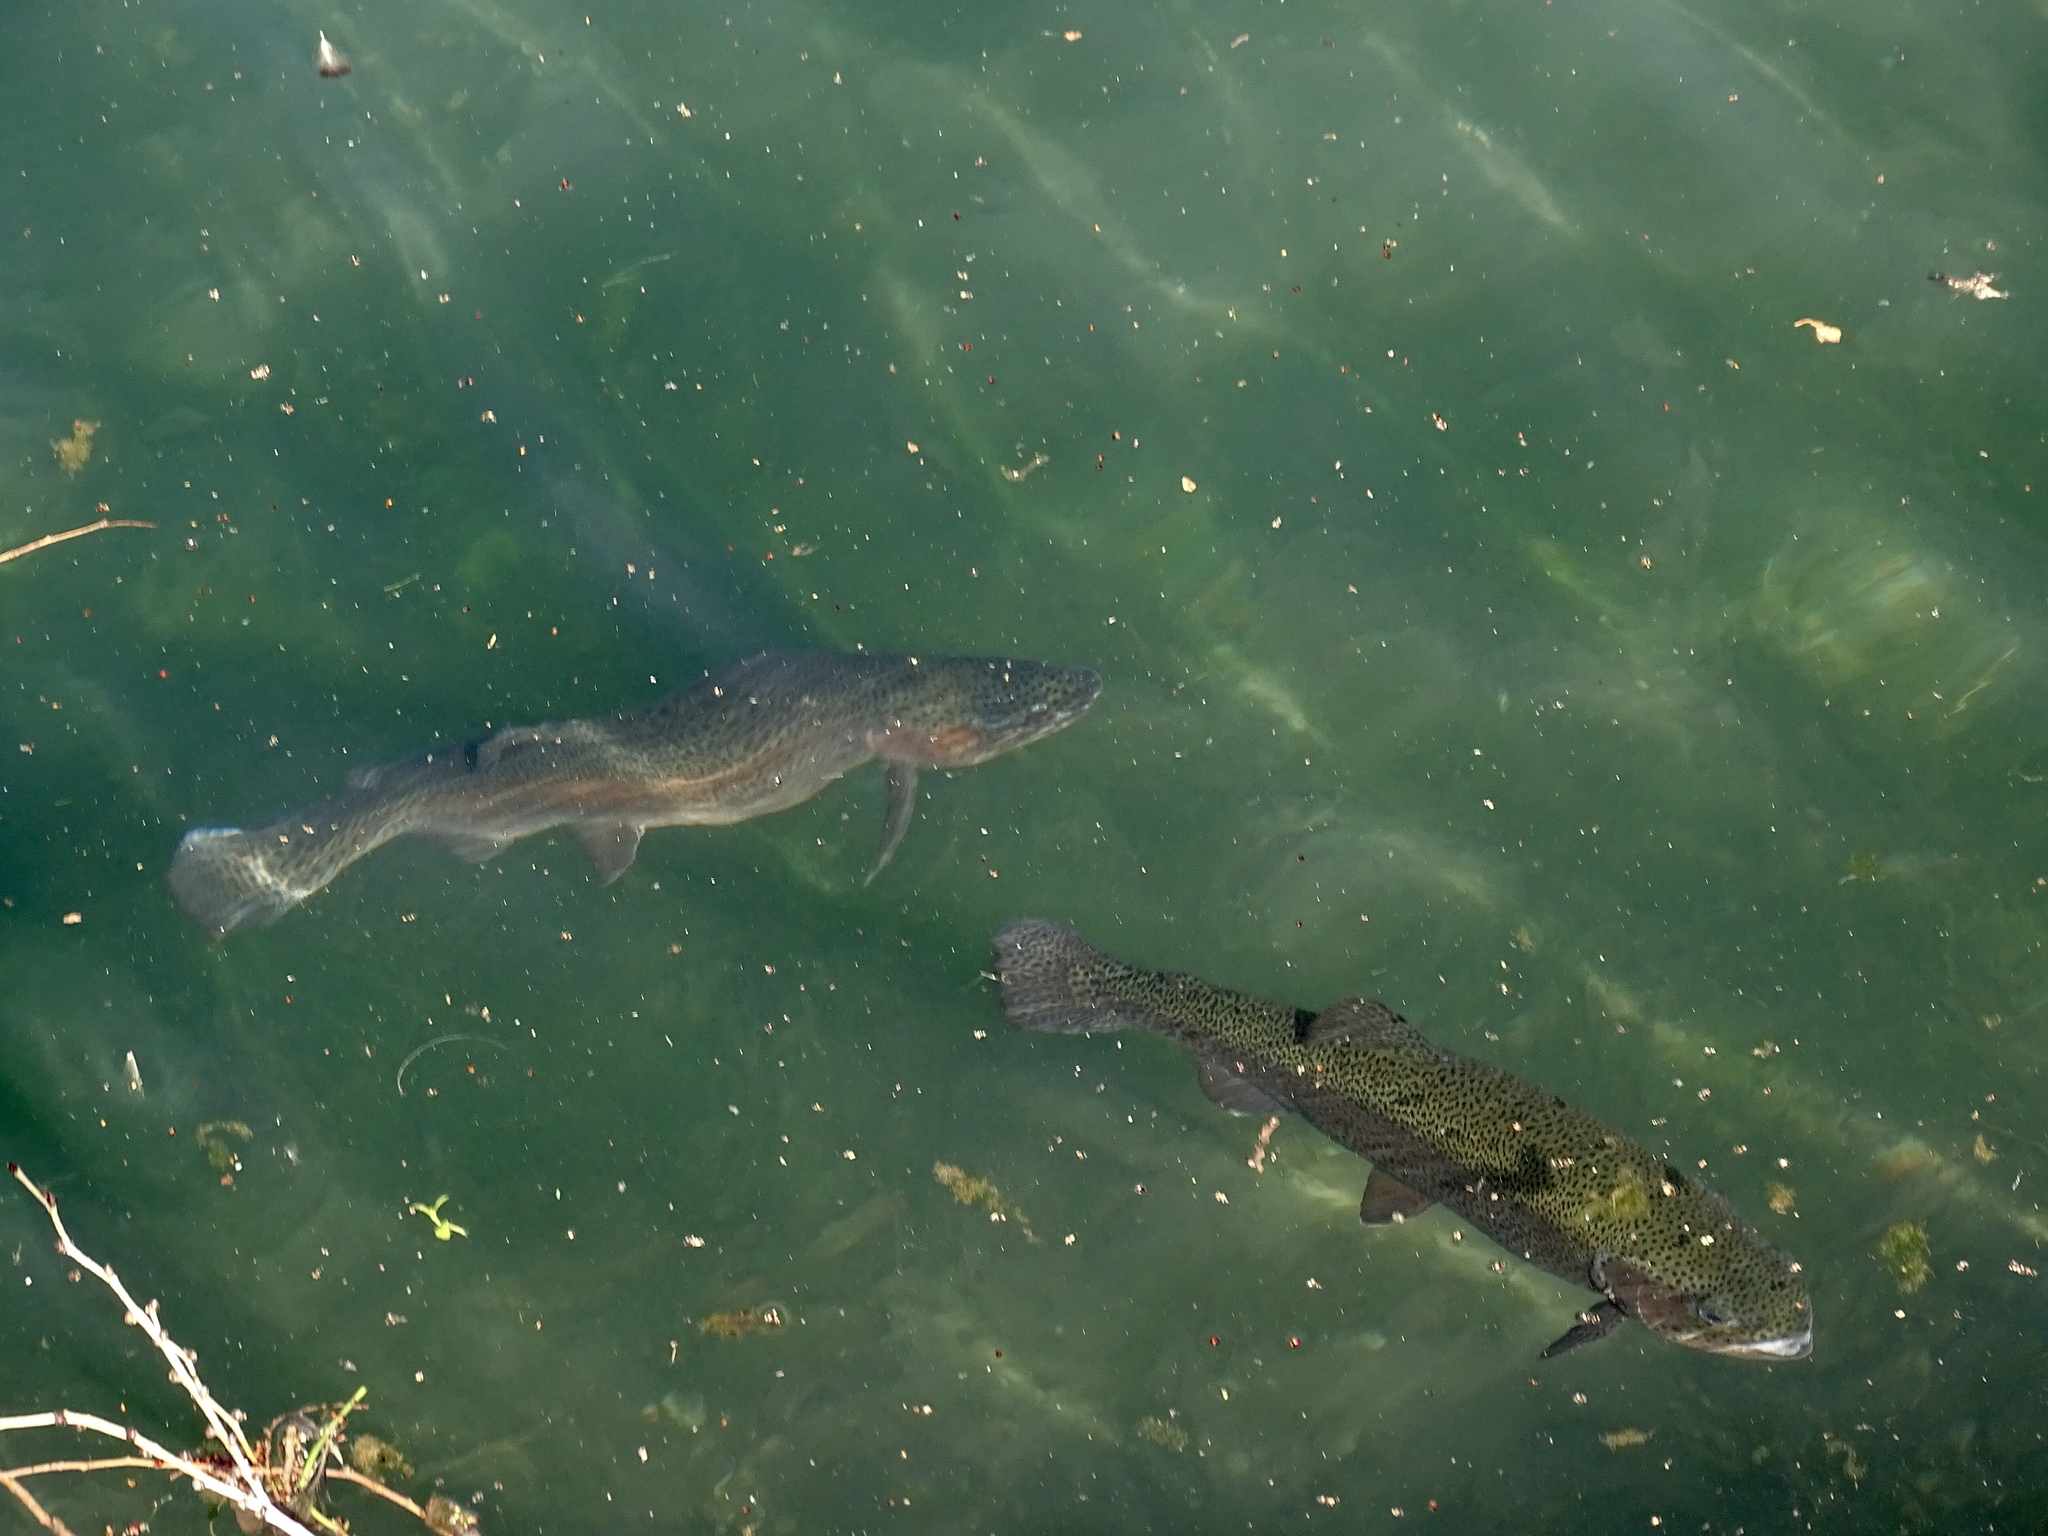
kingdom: Animalia
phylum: Chordata
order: Salmoniformes
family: Salmonidae
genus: Oncorhynchus
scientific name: Oncorhynchus mykiss
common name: Rainbow trout
